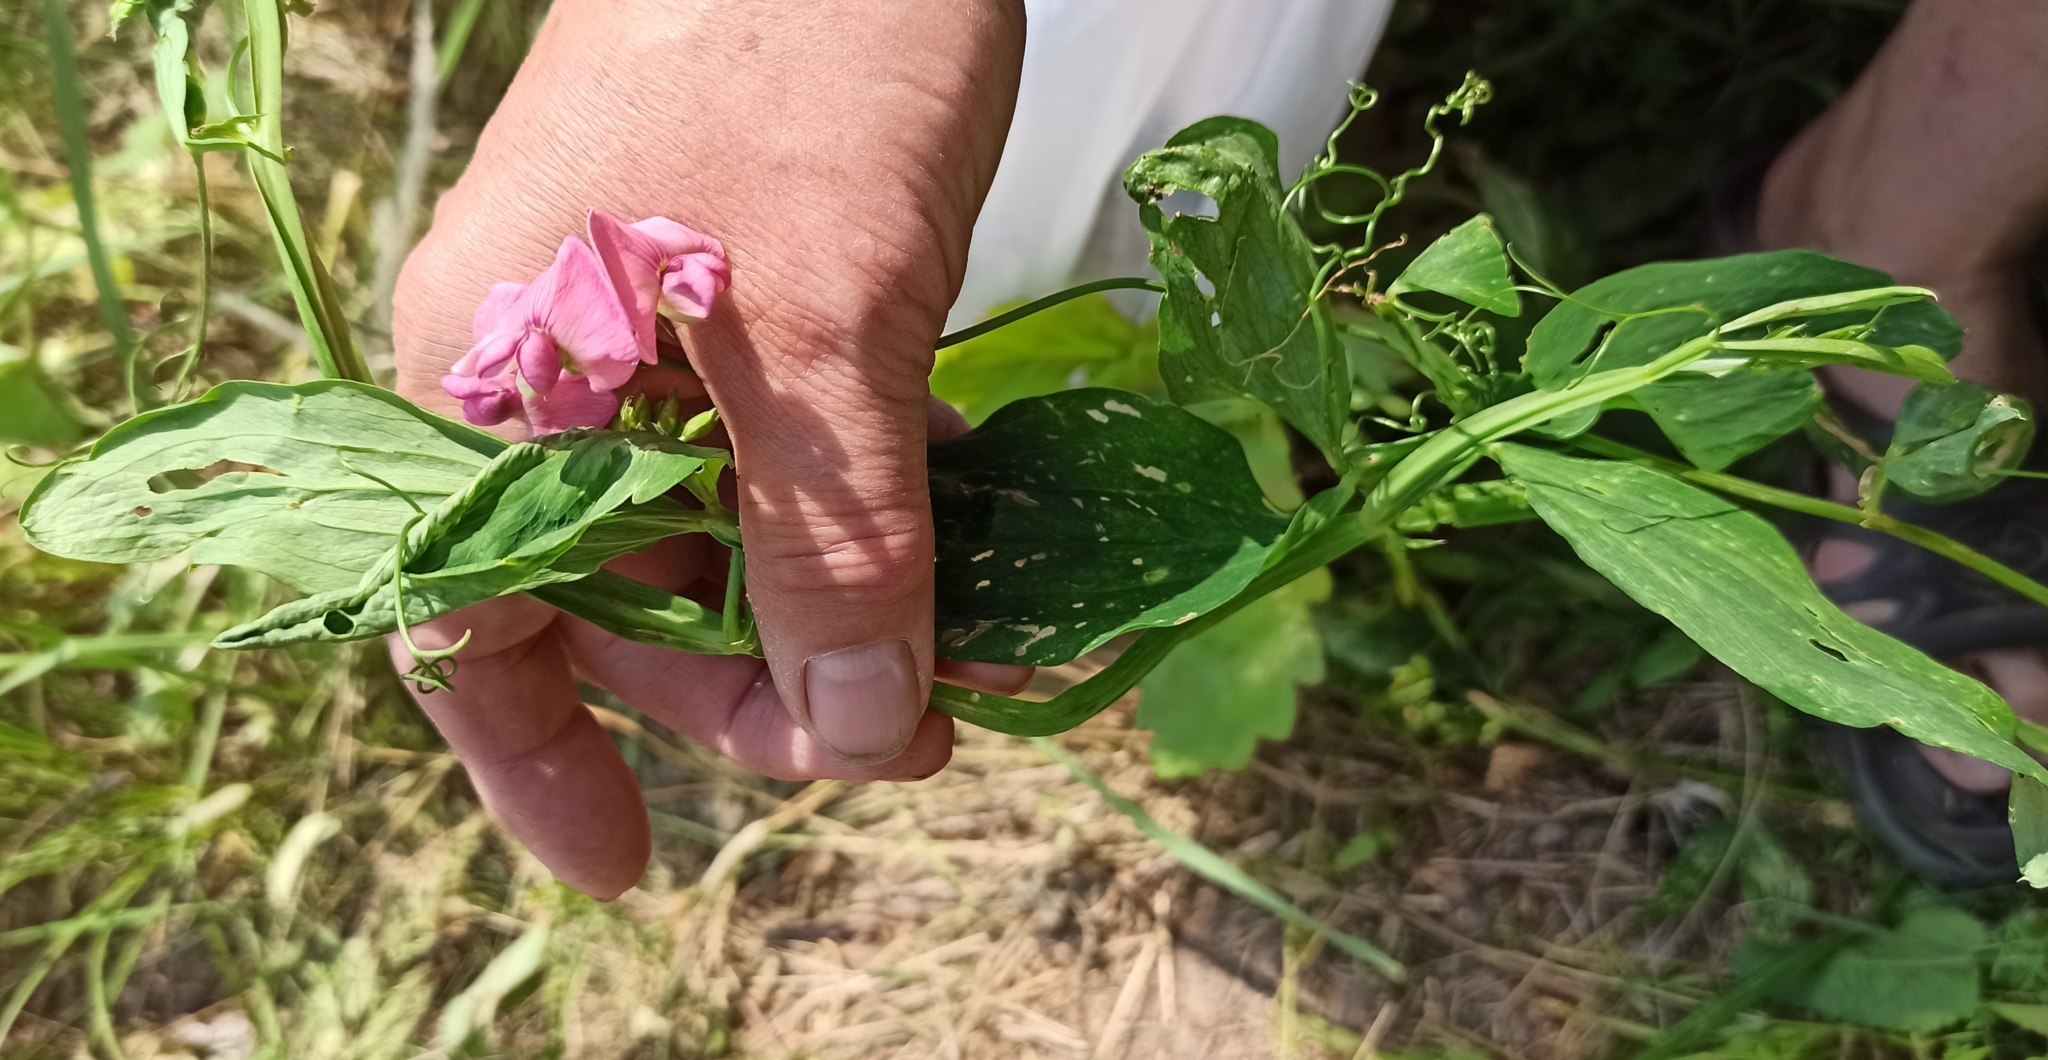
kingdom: Plantae
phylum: Tracheophyta
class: Magnoliopsida
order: Fabales
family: Fabaceae
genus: Lathyrus
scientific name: Lathyrus sylvestris
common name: Flat pea
